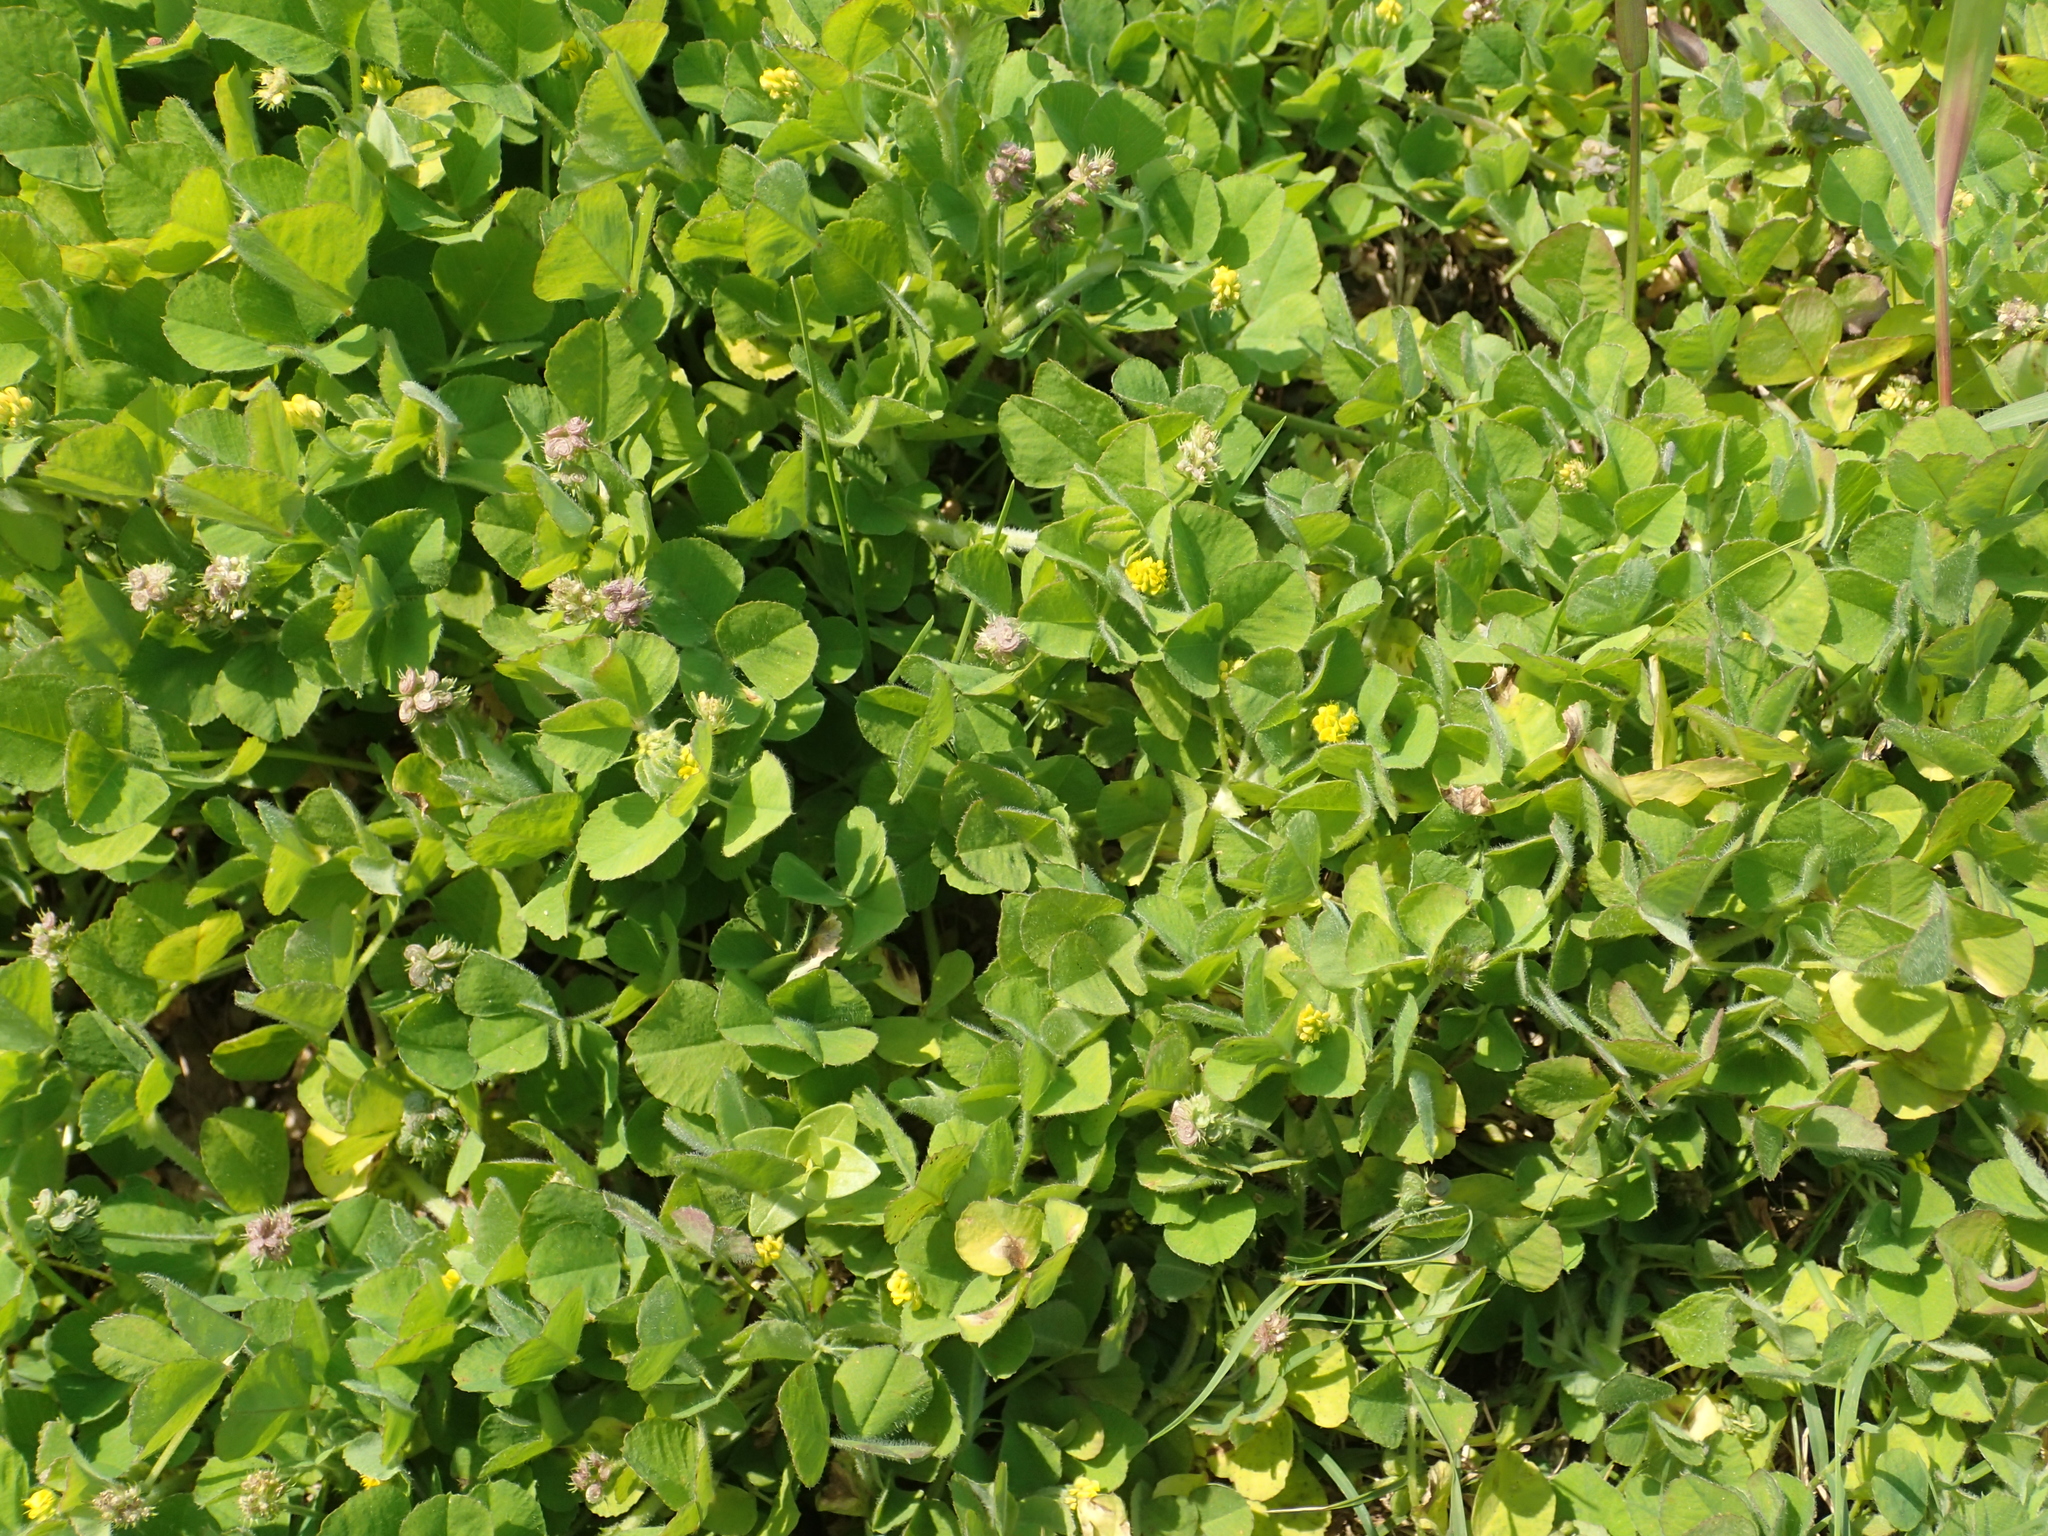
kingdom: Plantae
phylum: Tracheophyta
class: Magnoliopsida
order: Fabales
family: Fabaceae
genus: Medicago
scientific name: Medicago lupulina
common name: Black medick
